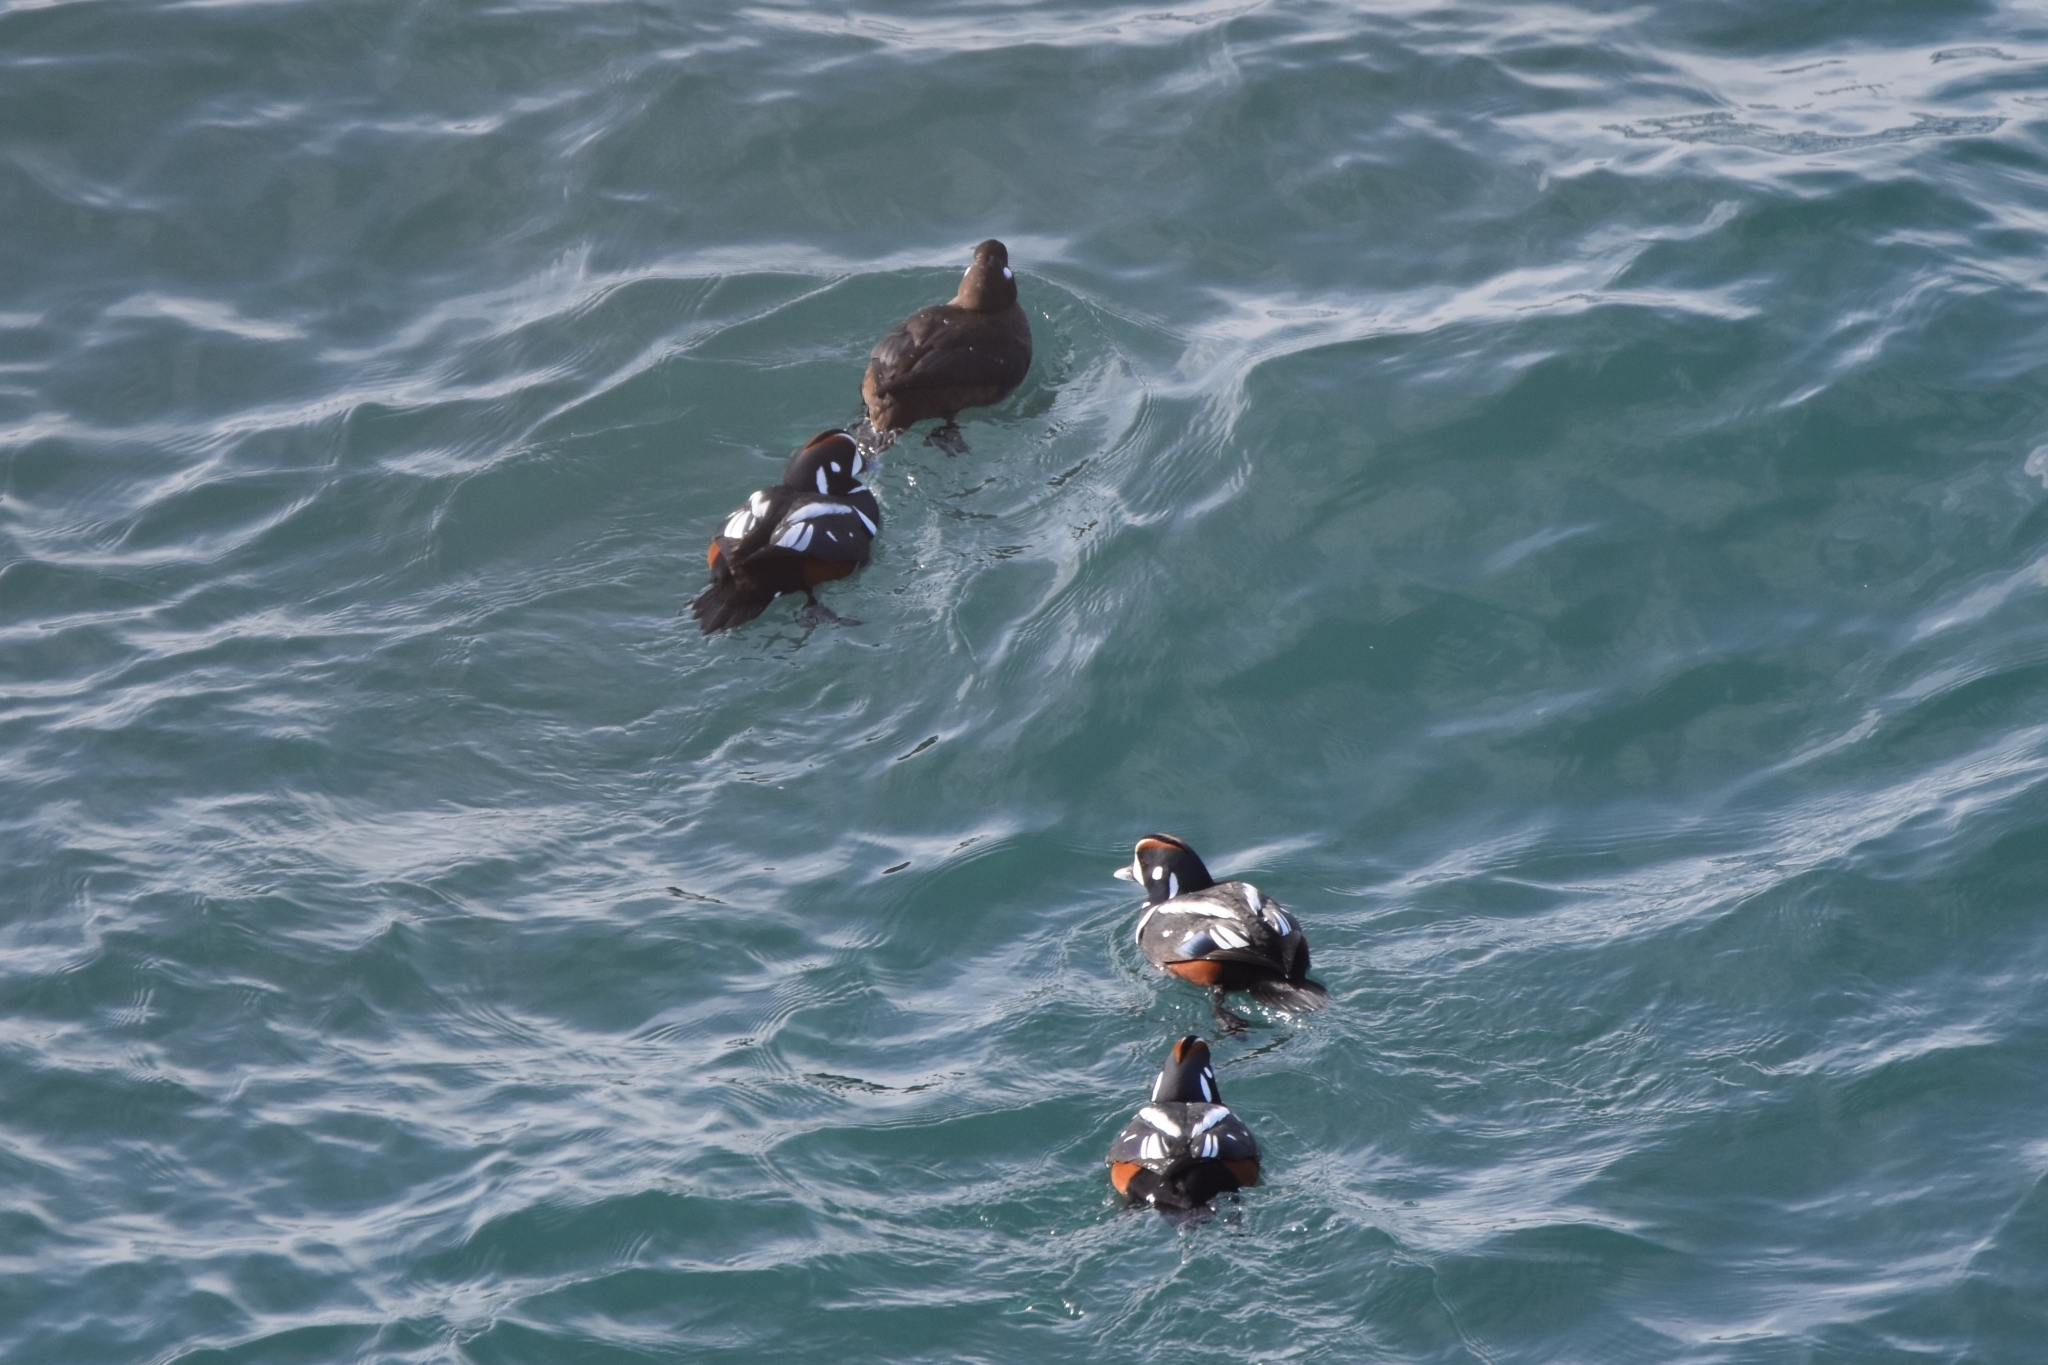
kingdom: Animalia
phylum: Chordata
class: Aves
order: Anseriformes
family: Anatidae
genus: Histrionicus
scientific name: Histrionicus histrionicus
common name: Harlequin duck
